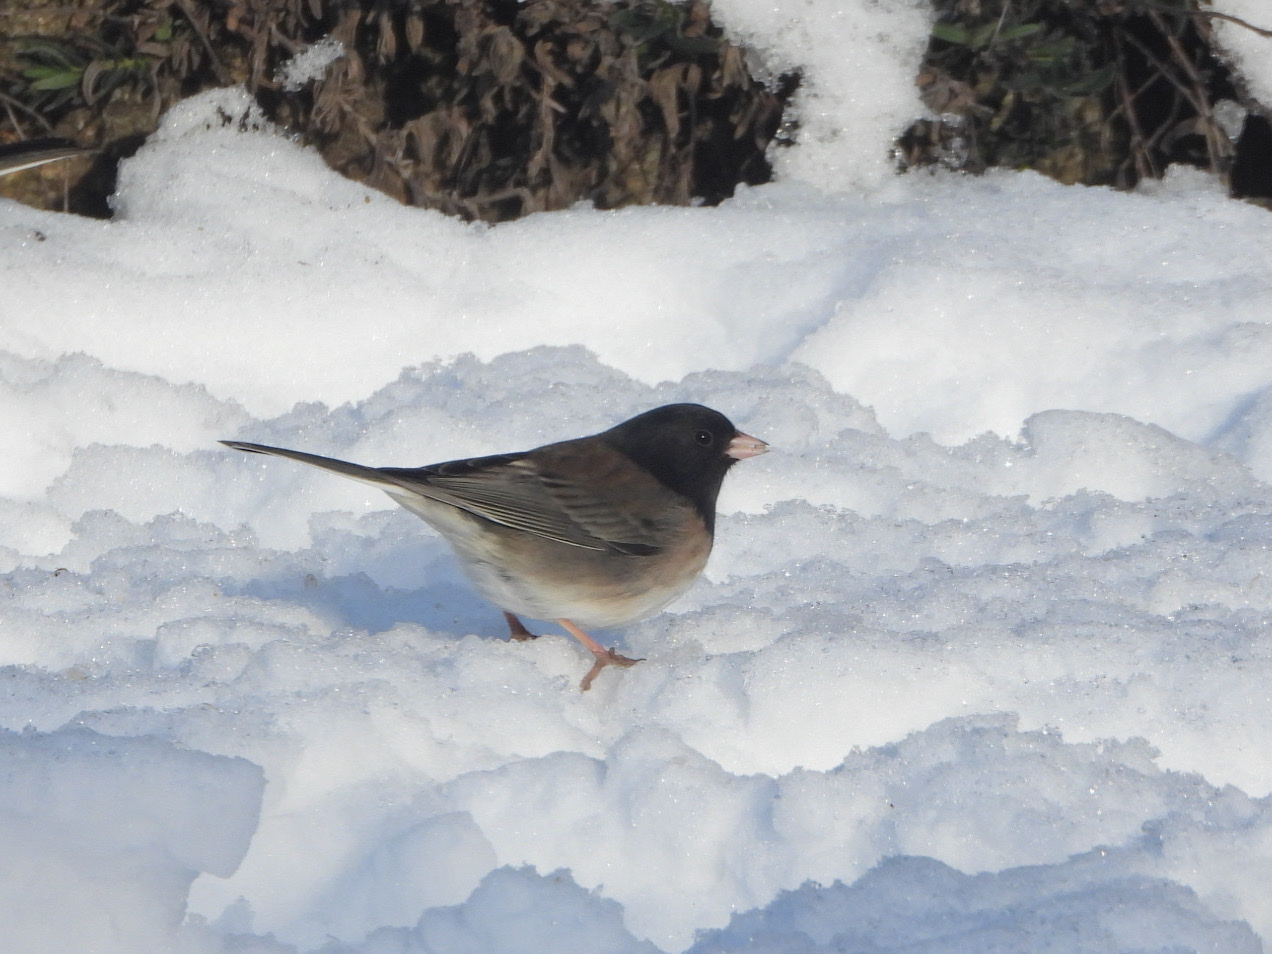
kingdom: Animalia
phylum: Chordata
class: Aves
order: Passeriformes
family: Passerellidae
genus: Junco
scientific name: Junco hyemalis
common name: Dark-eyed junco
